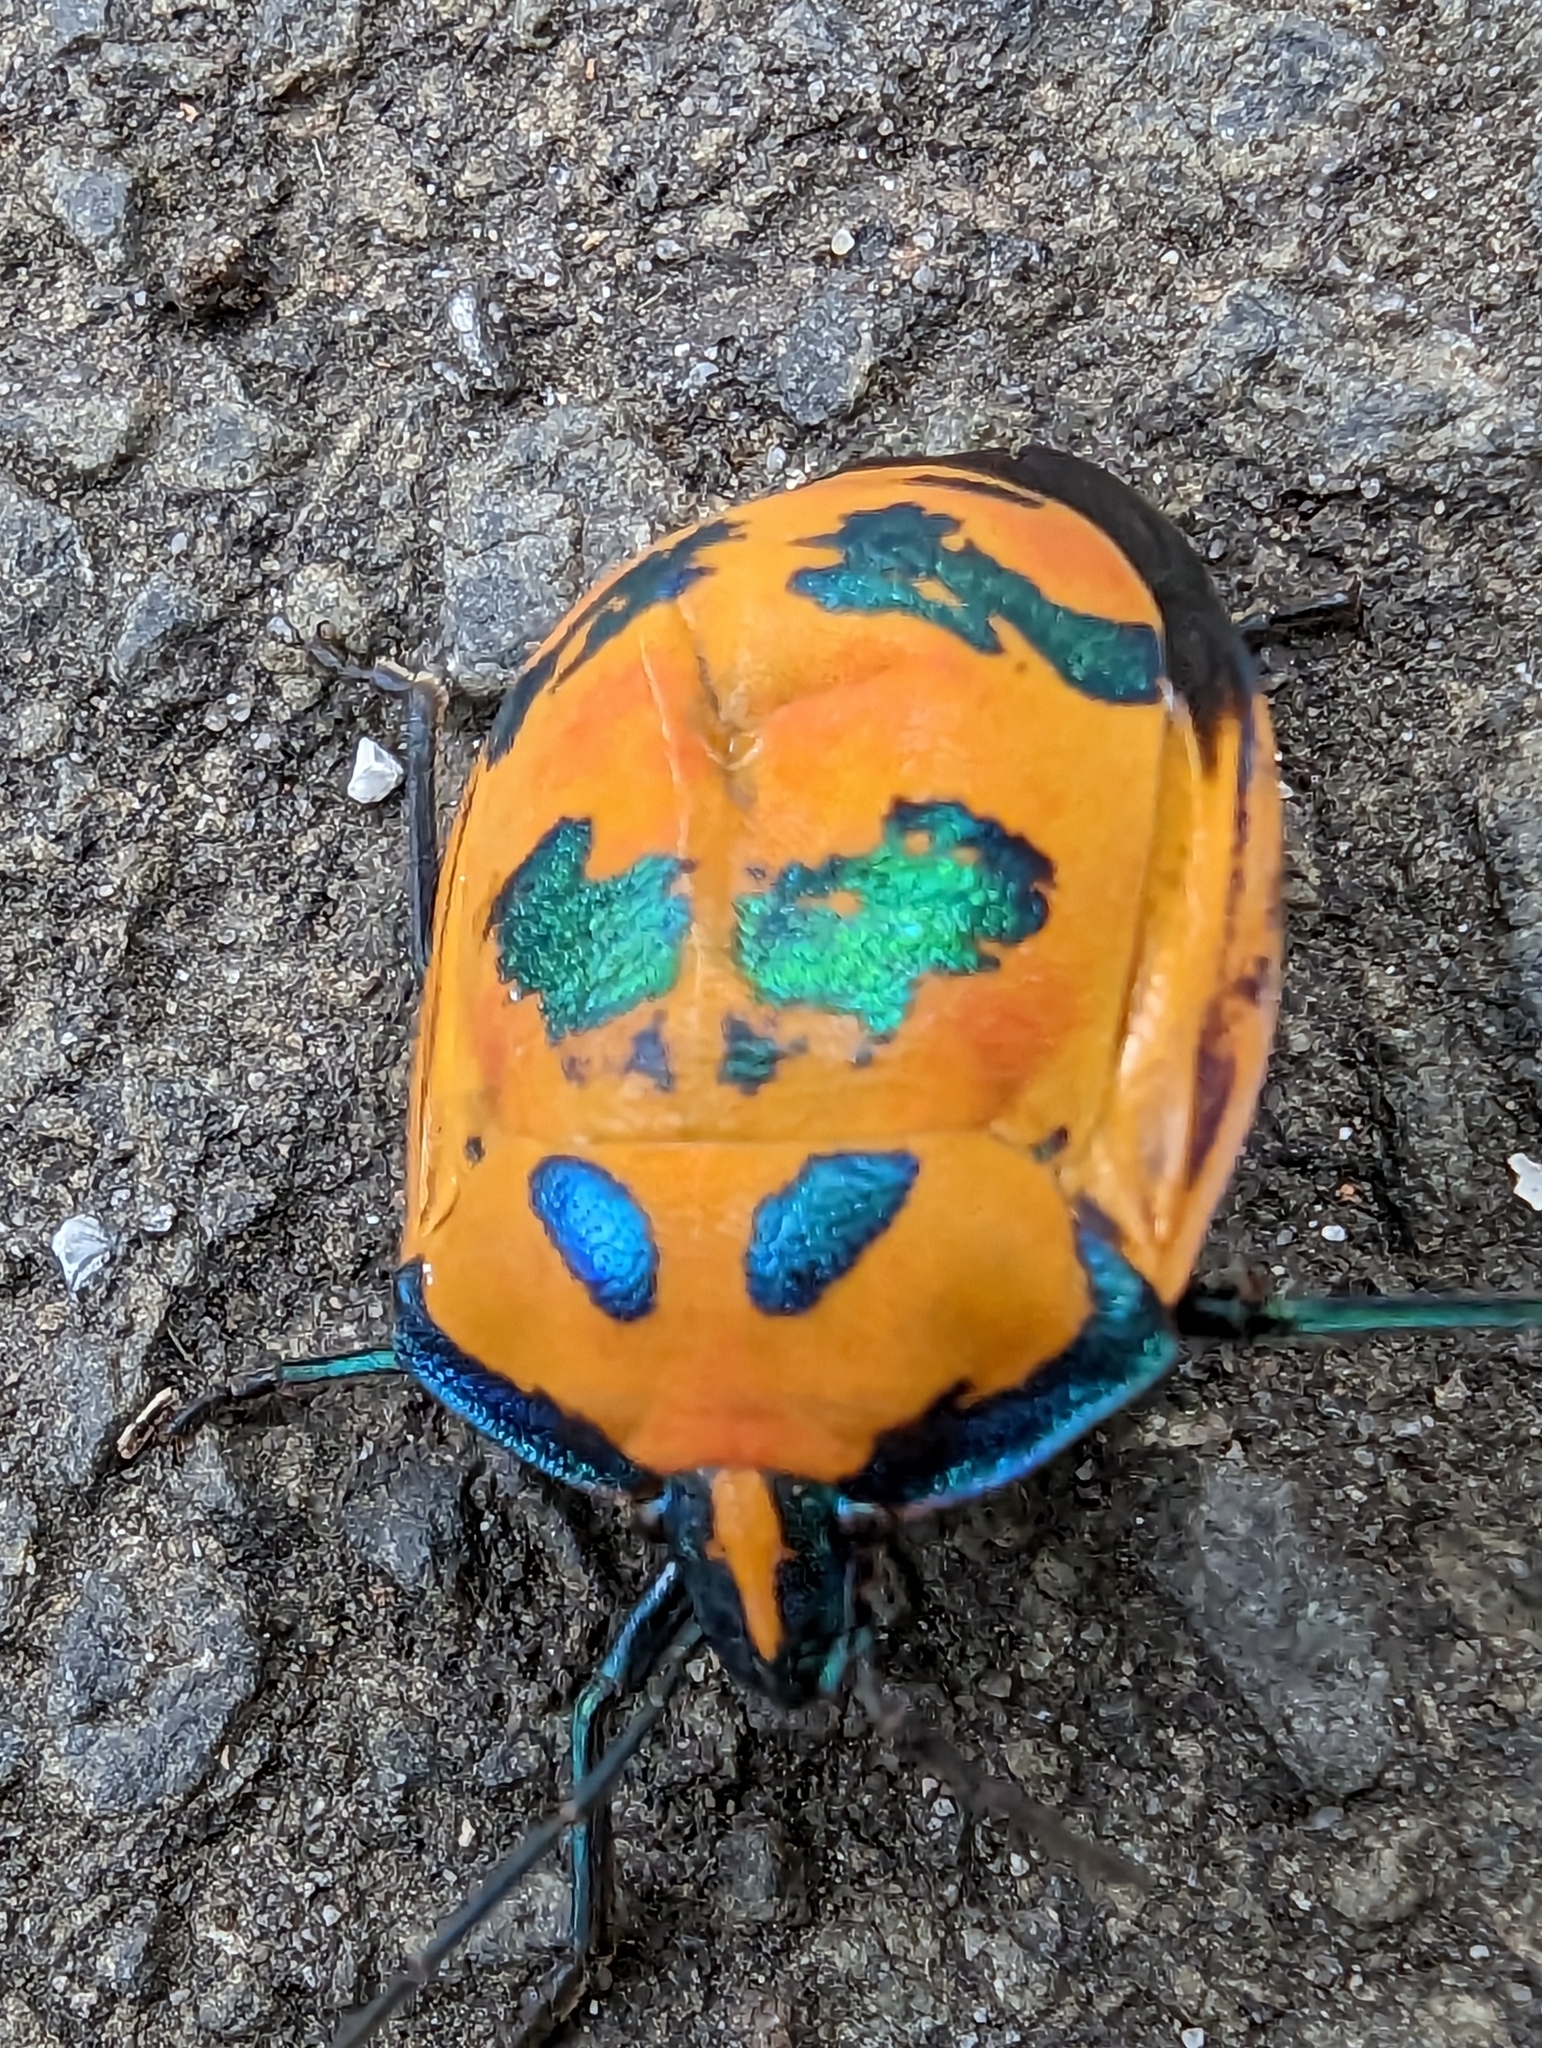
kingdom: Animalia
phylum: Arthropoda
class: Insecta
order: Hemiptera
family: Scutelleridae
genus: Tectocoris
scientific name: Tectocoris diophthalmus
